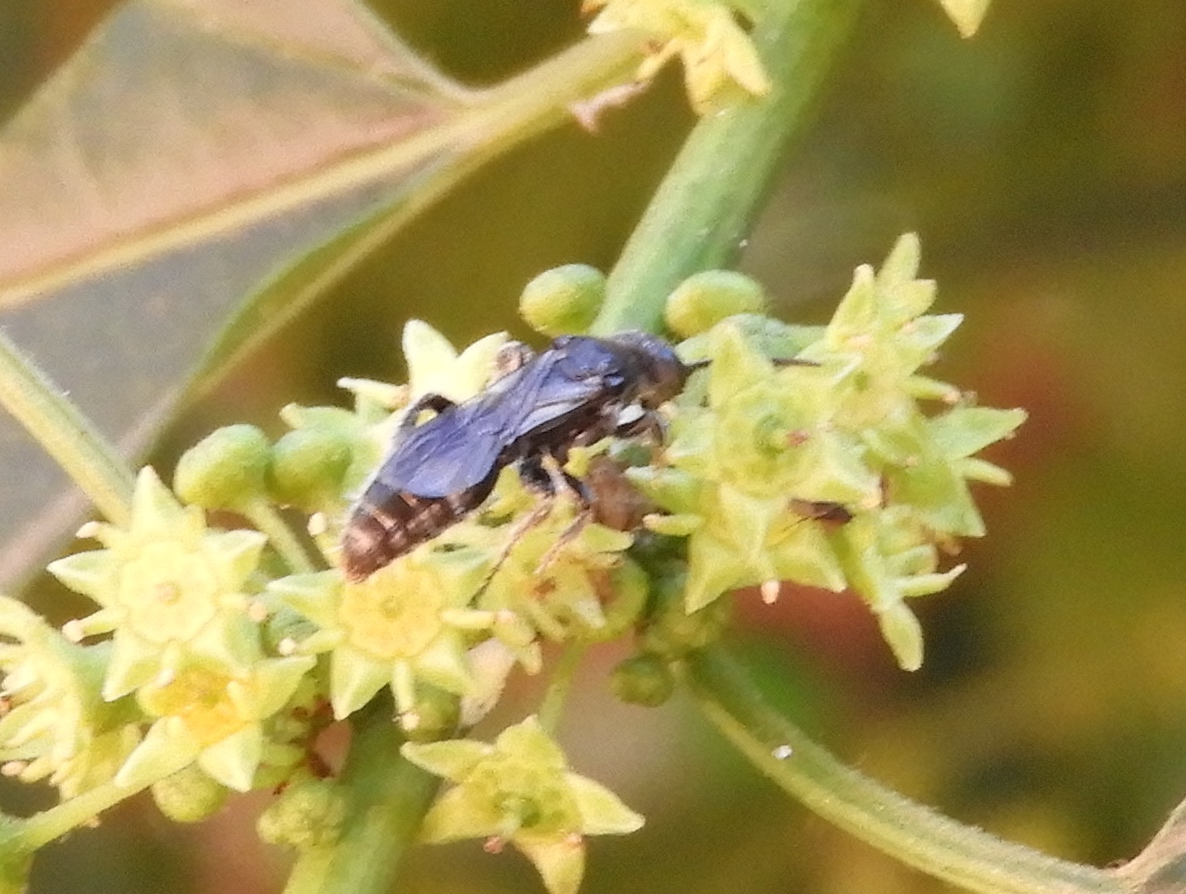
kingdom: Animalia
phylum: Arthropoda
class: Insecta
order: Hymenoptera
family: Tiphiidae
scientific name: Tiphiidae
